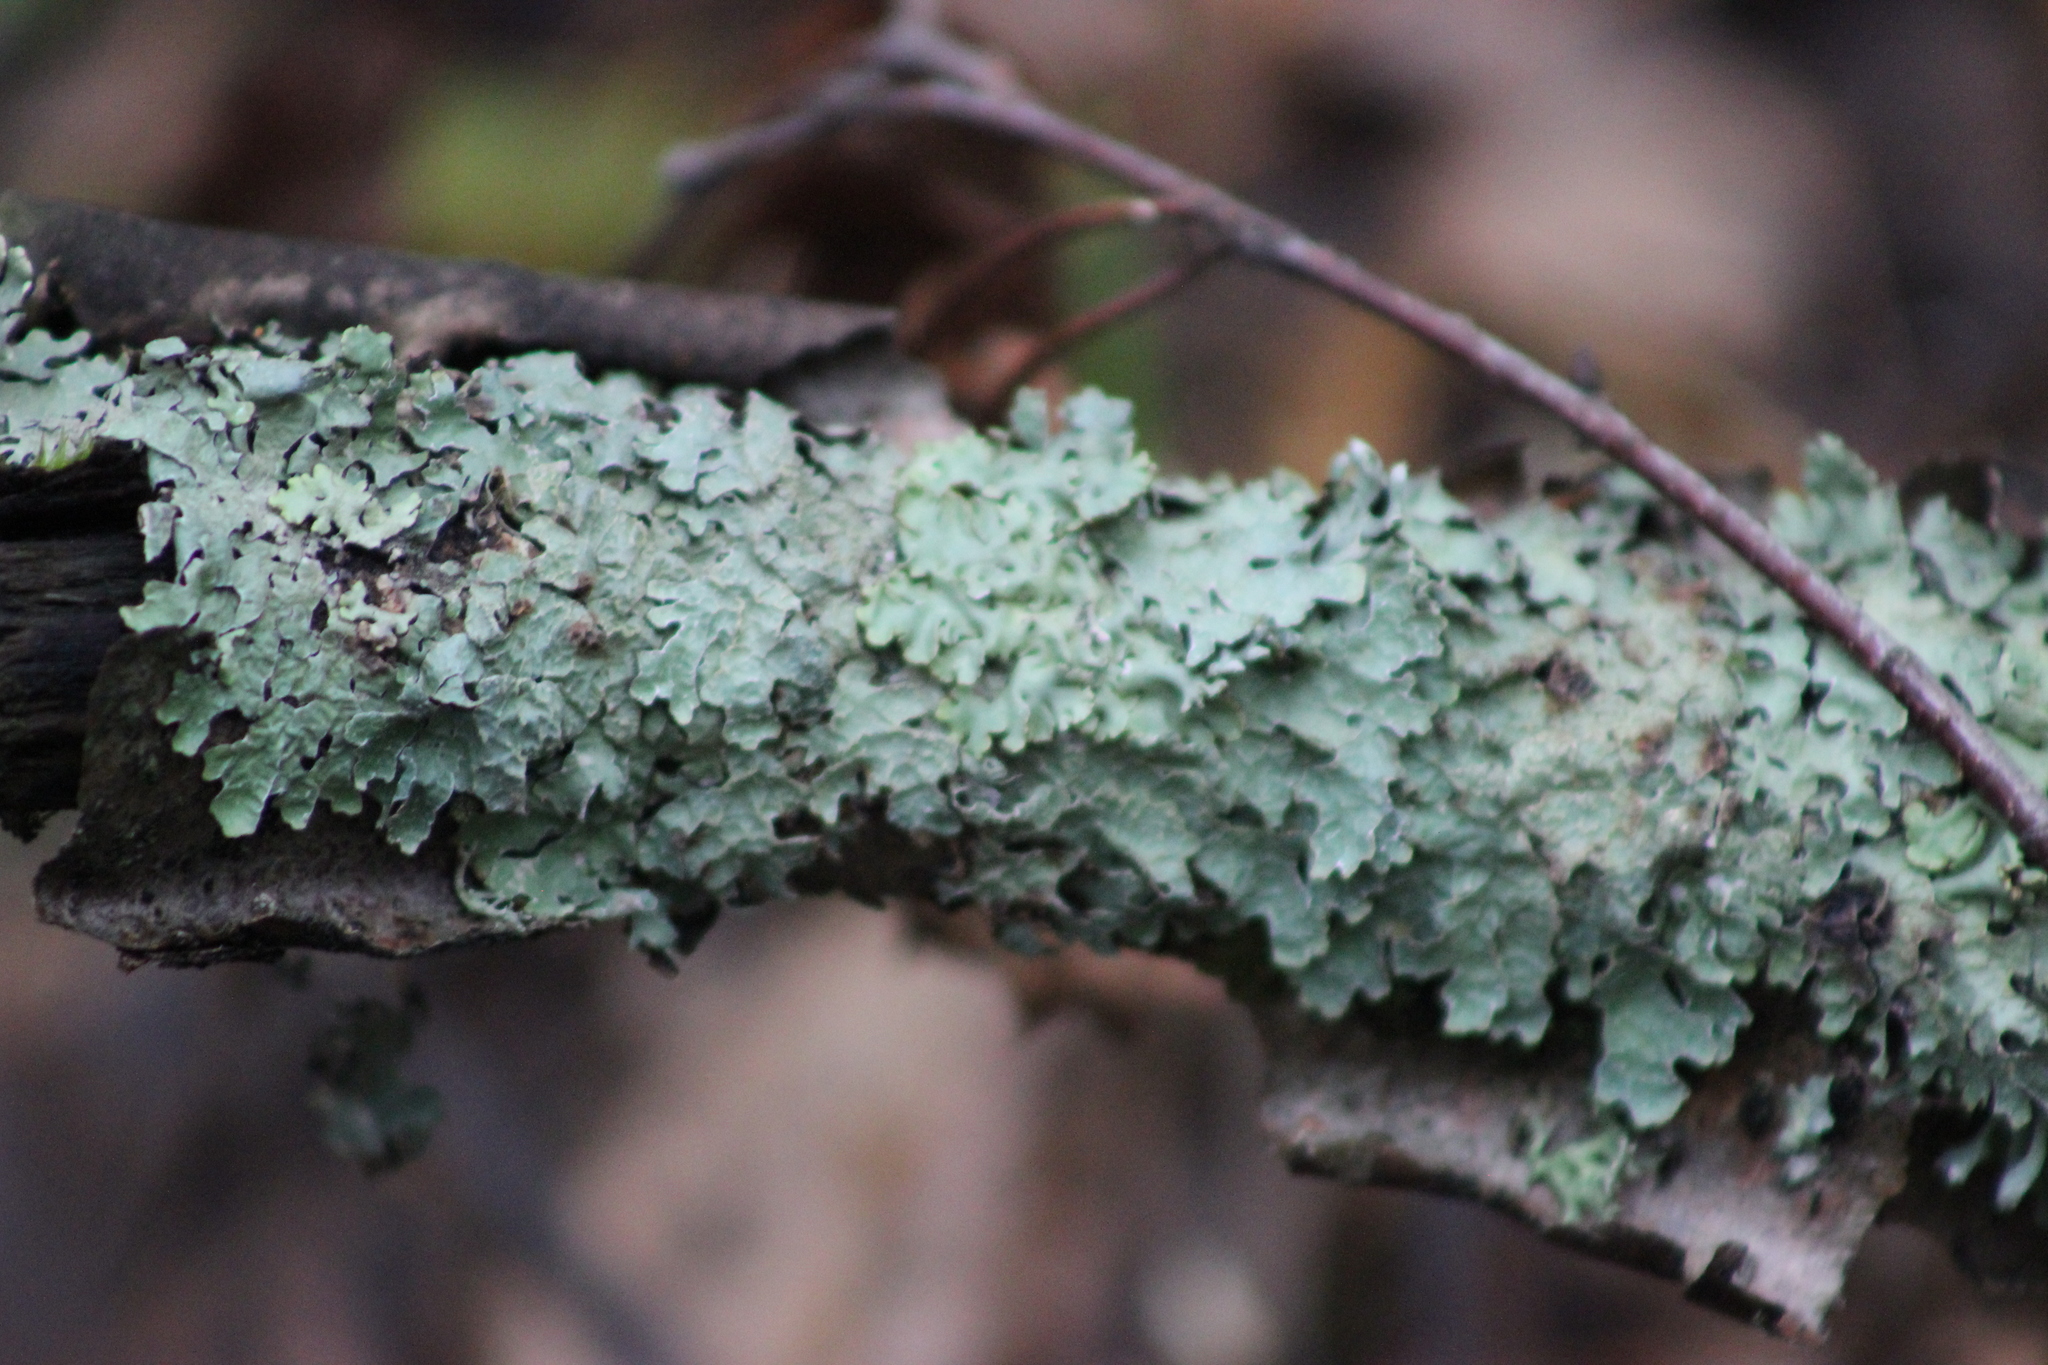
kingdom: Fungi
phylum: Ascomycota
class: Lecanoromycetes
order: Lecanorales
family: Parmeliaceae
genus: Parmelia
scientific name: Parmelia sulcata
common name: Netted shield lichen
